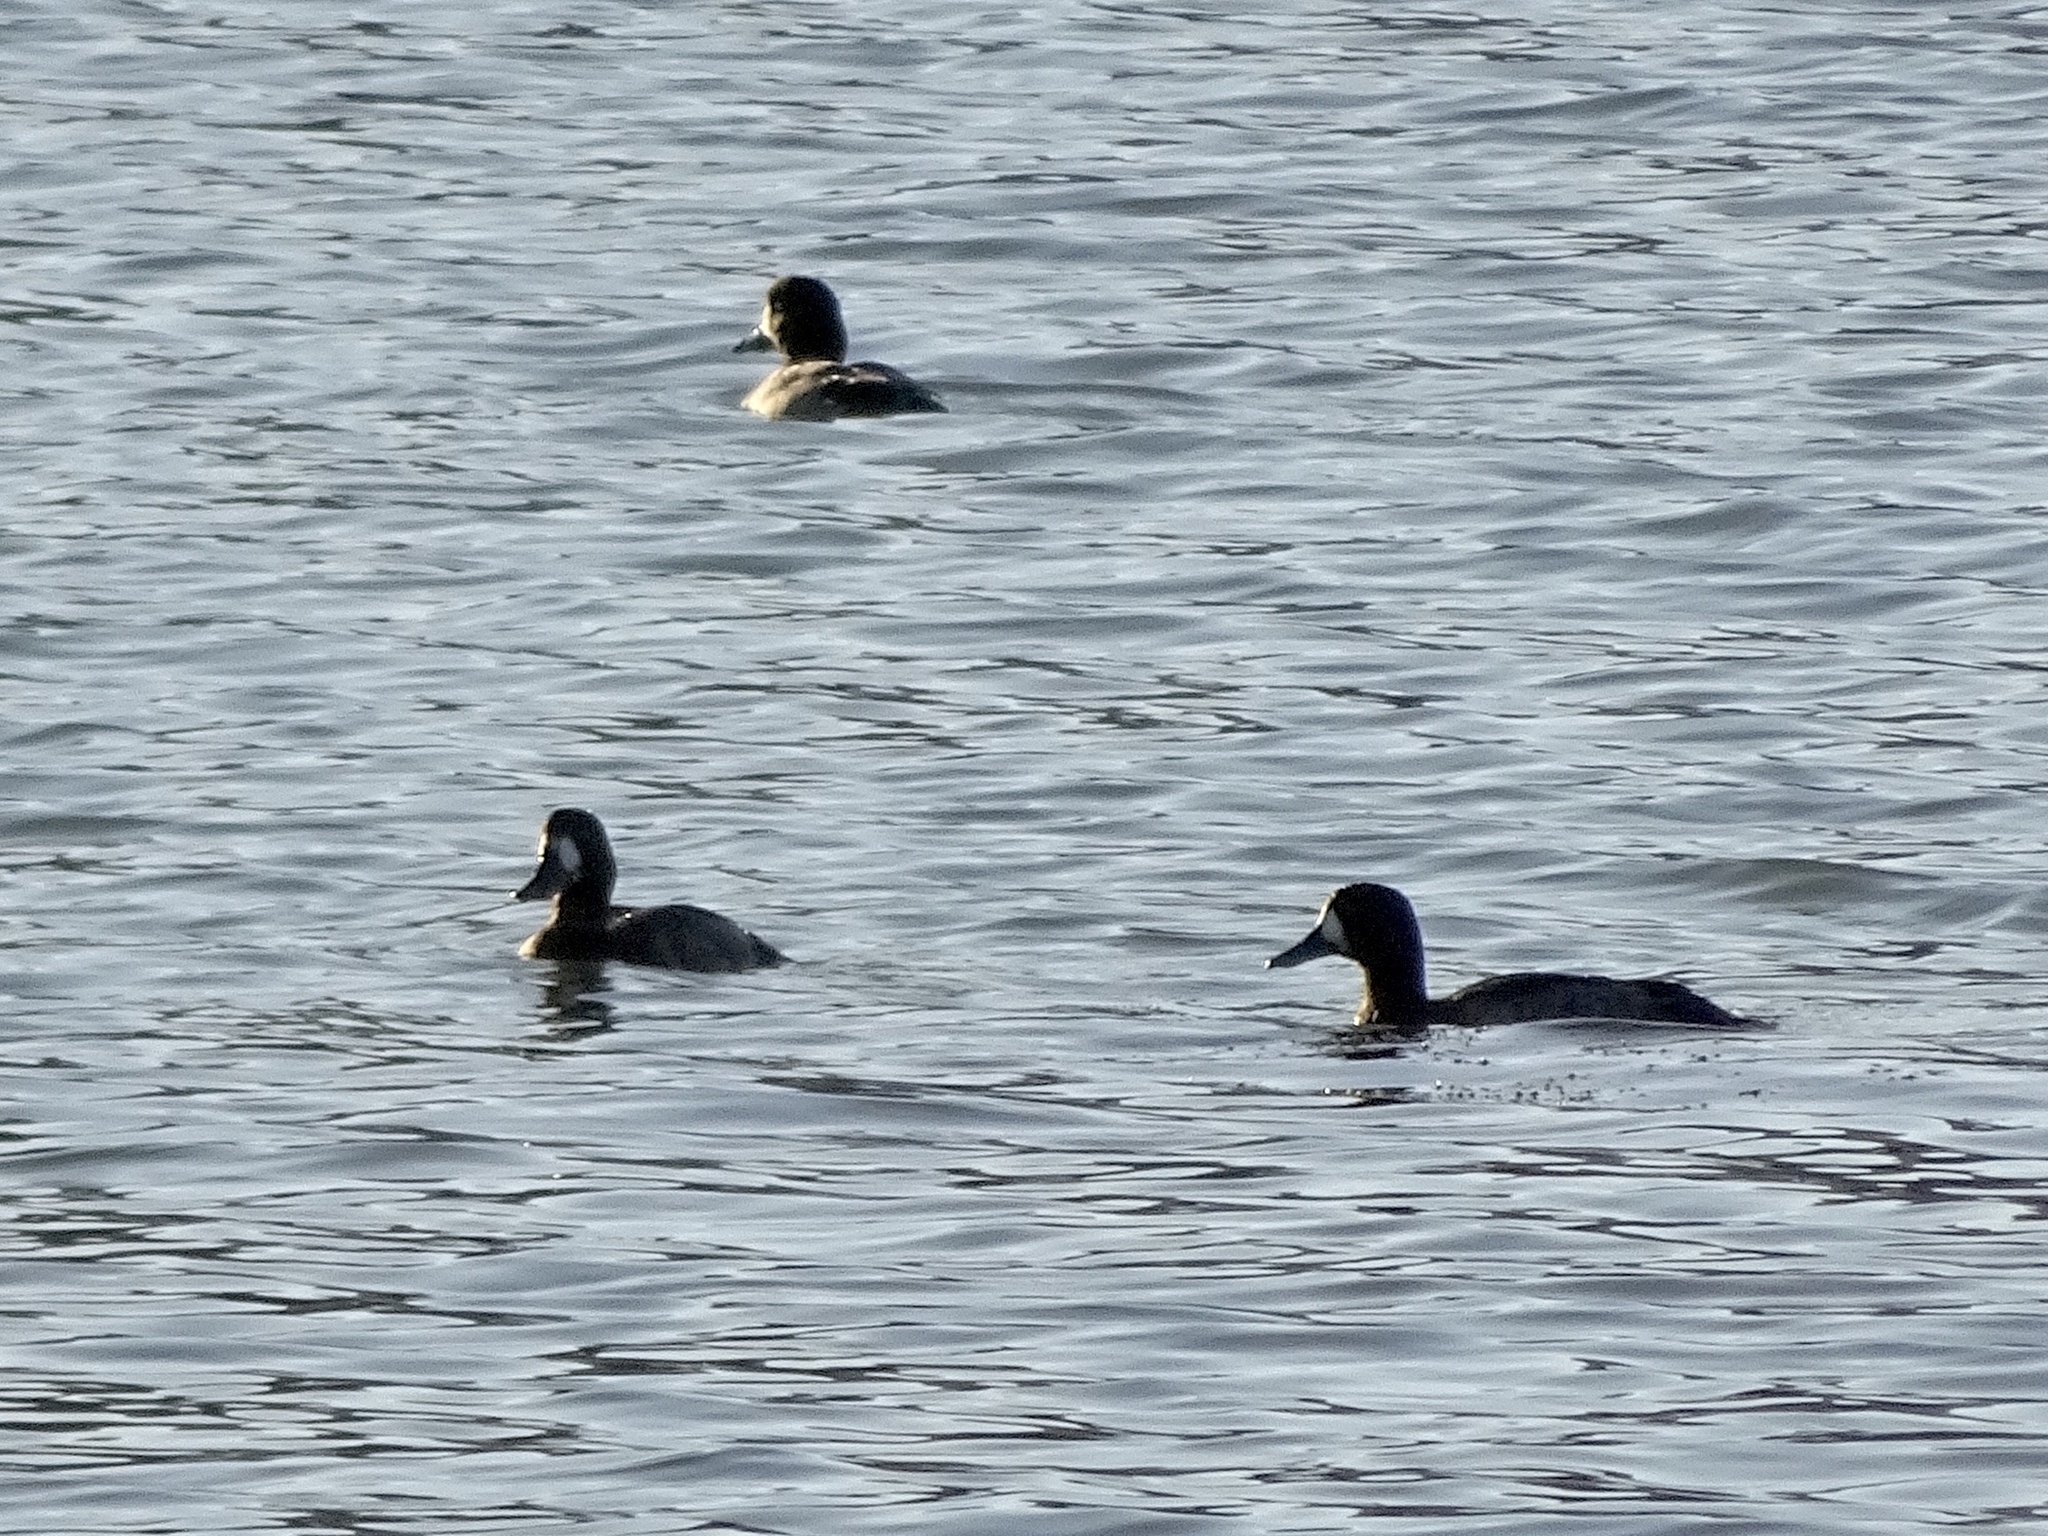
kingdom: Animalia
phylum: Chordata
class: Aves
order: Anseriformes
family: Anatidae
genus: Aythya
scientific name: Aythya marila
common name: Greater scaup
